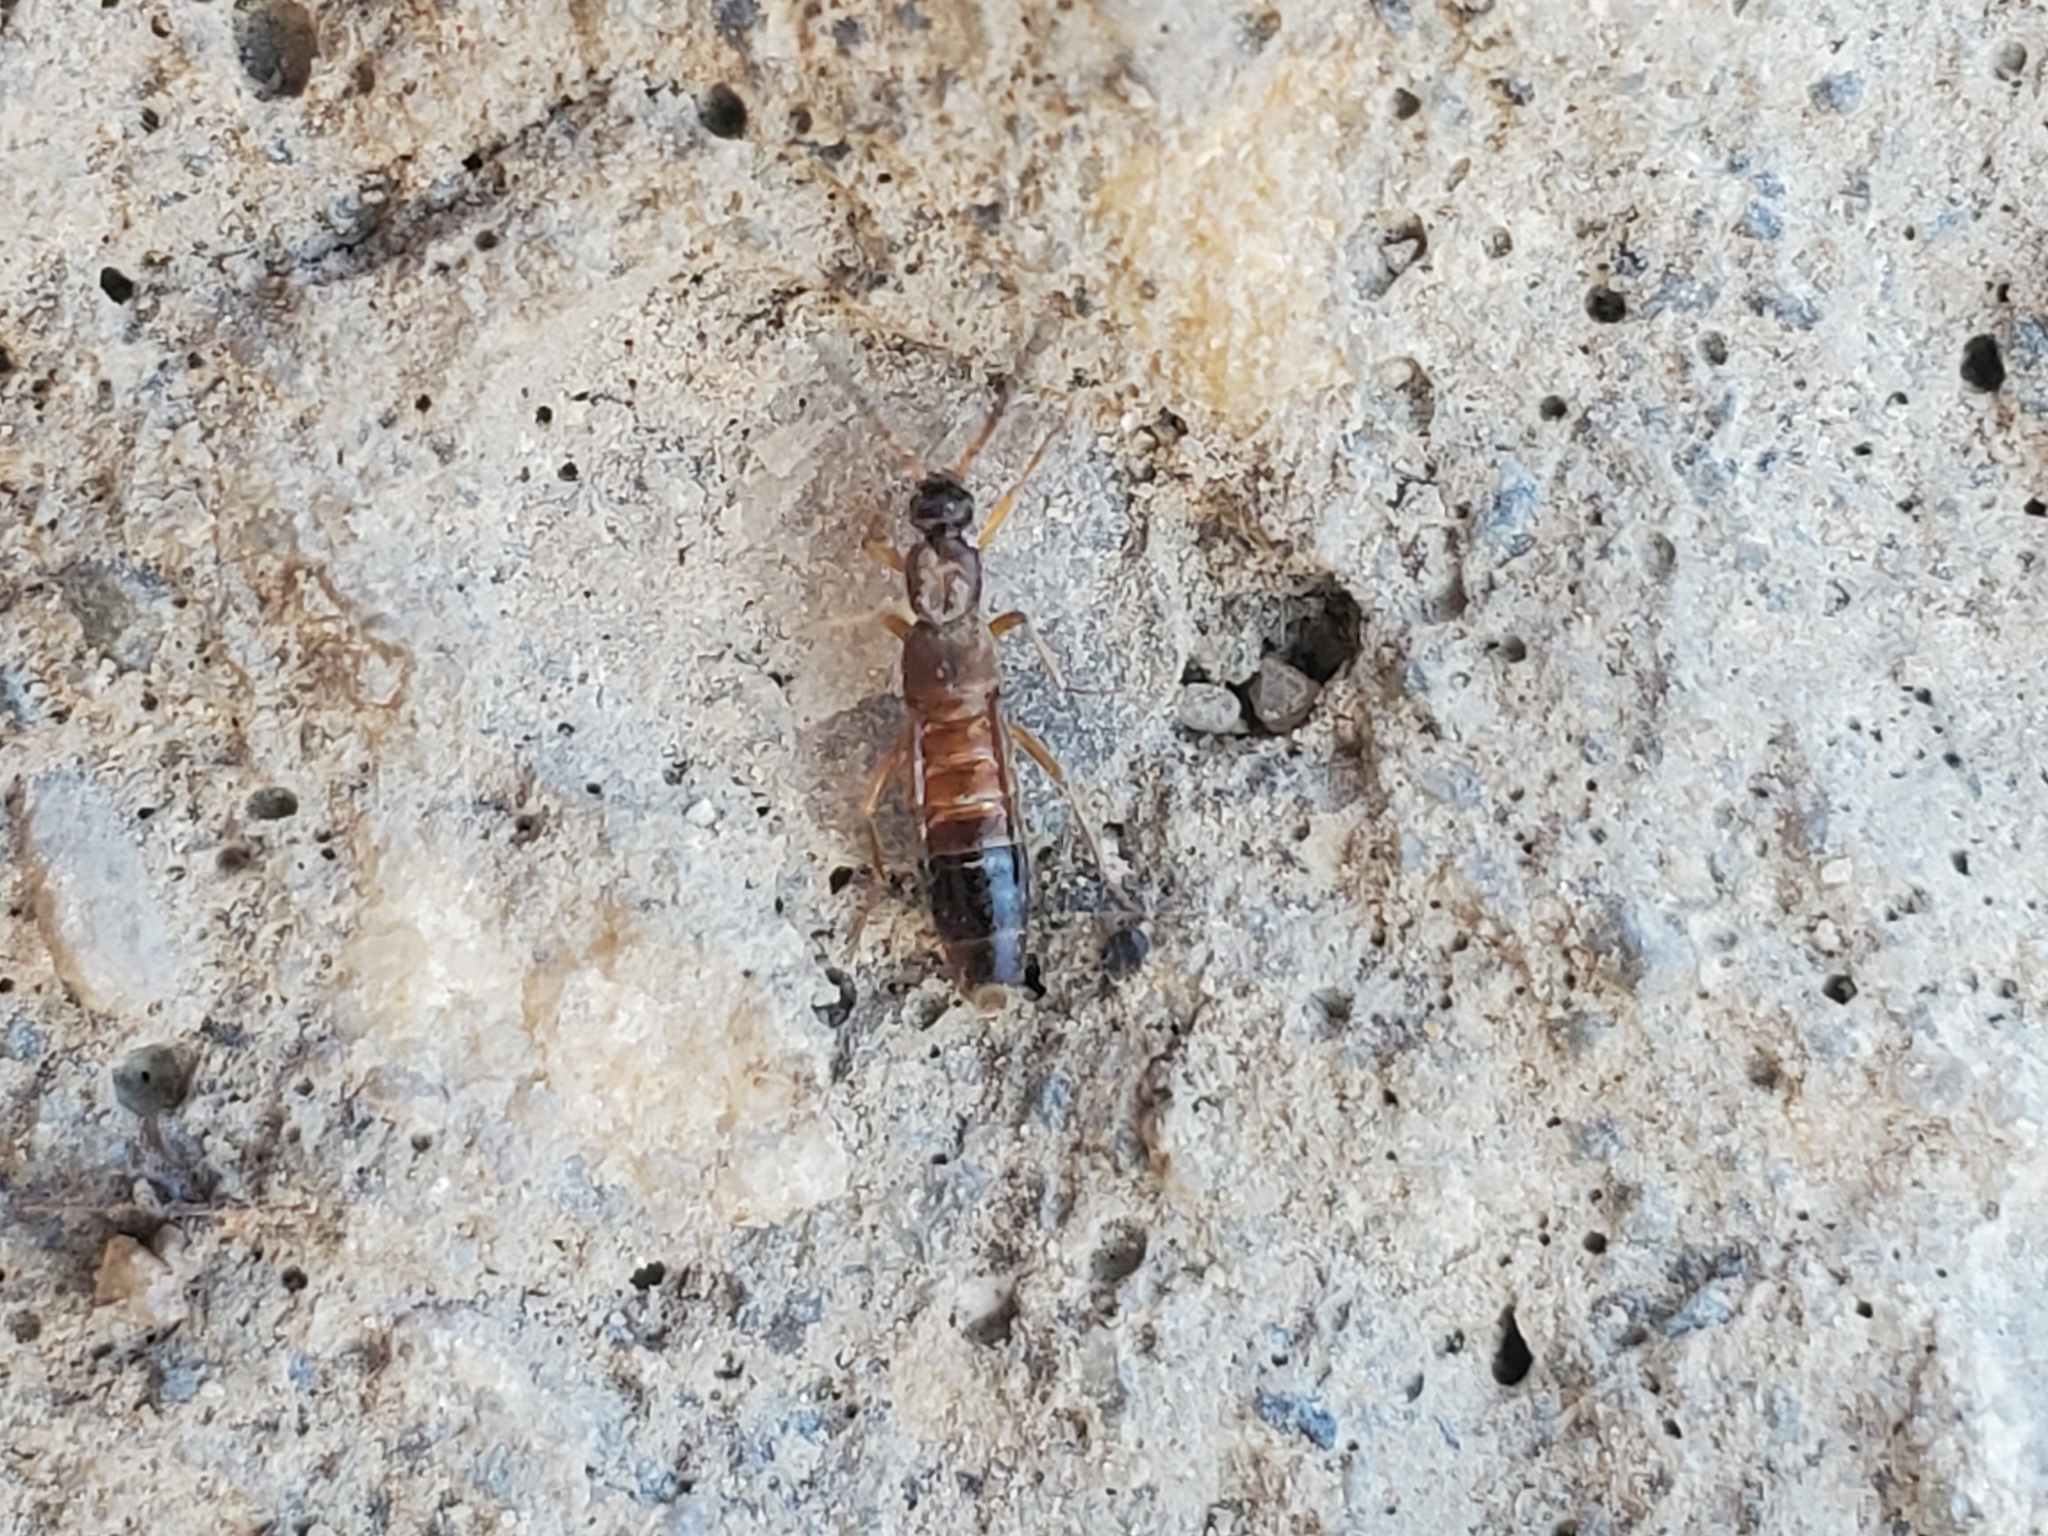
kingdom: Animalia
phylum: Arthropoda
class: Insecta
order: Coleoptera
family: Staphylinidae
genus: Drusilla
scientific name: Drusilla canaliculata
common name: Rove beetle
